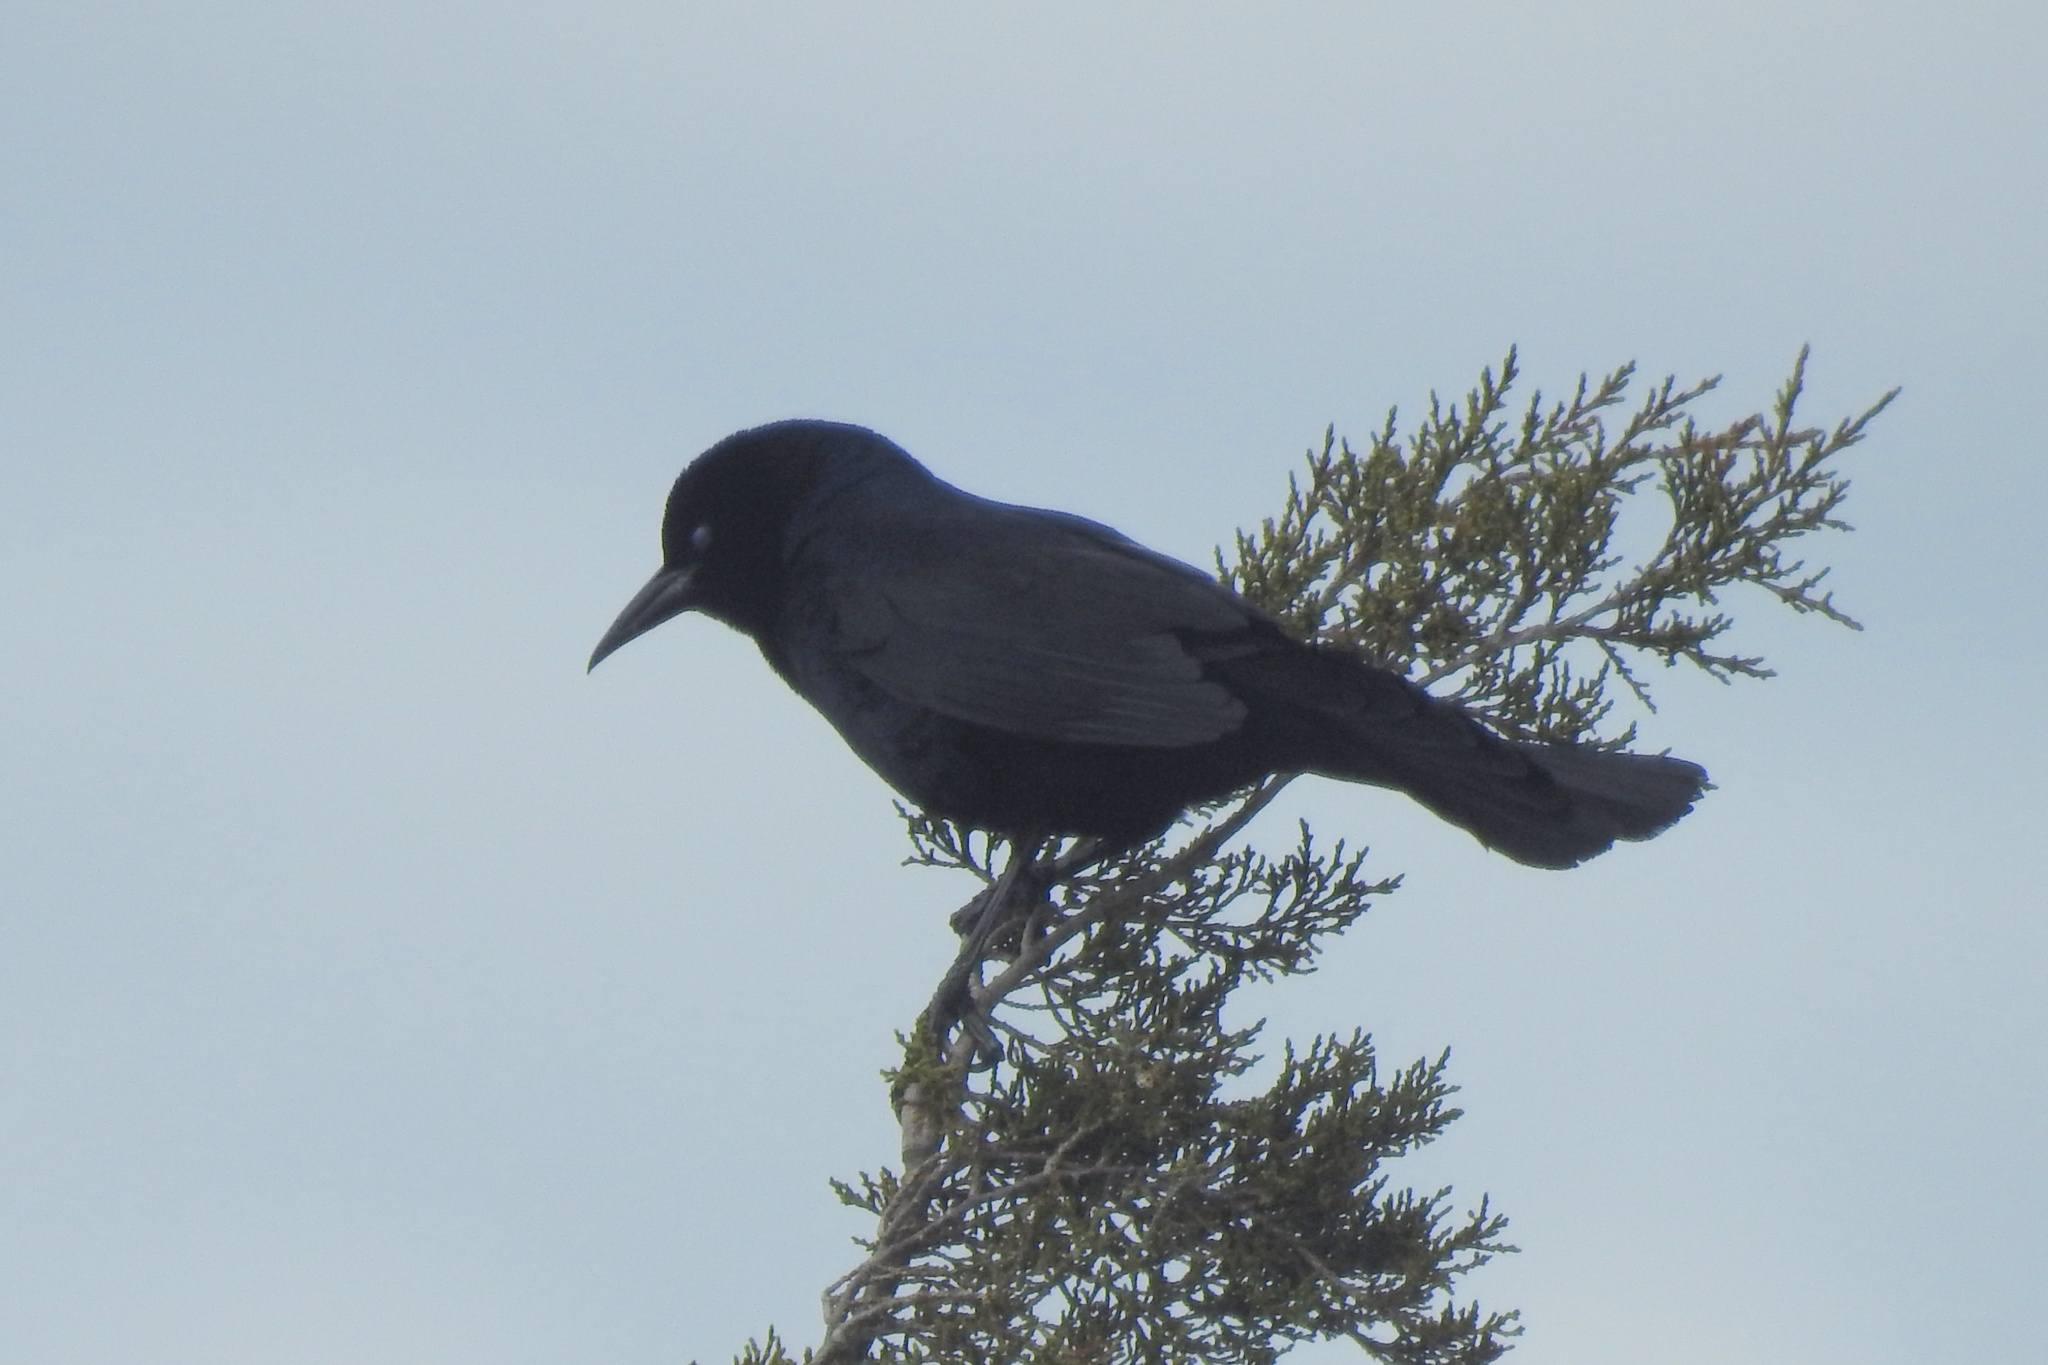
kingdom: Animalia
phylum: Chordata
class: Aves
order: Passeriformes
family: Icteridae
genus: Quiscalus
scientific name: Quiscalus major
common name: Boat-tailed grackle
